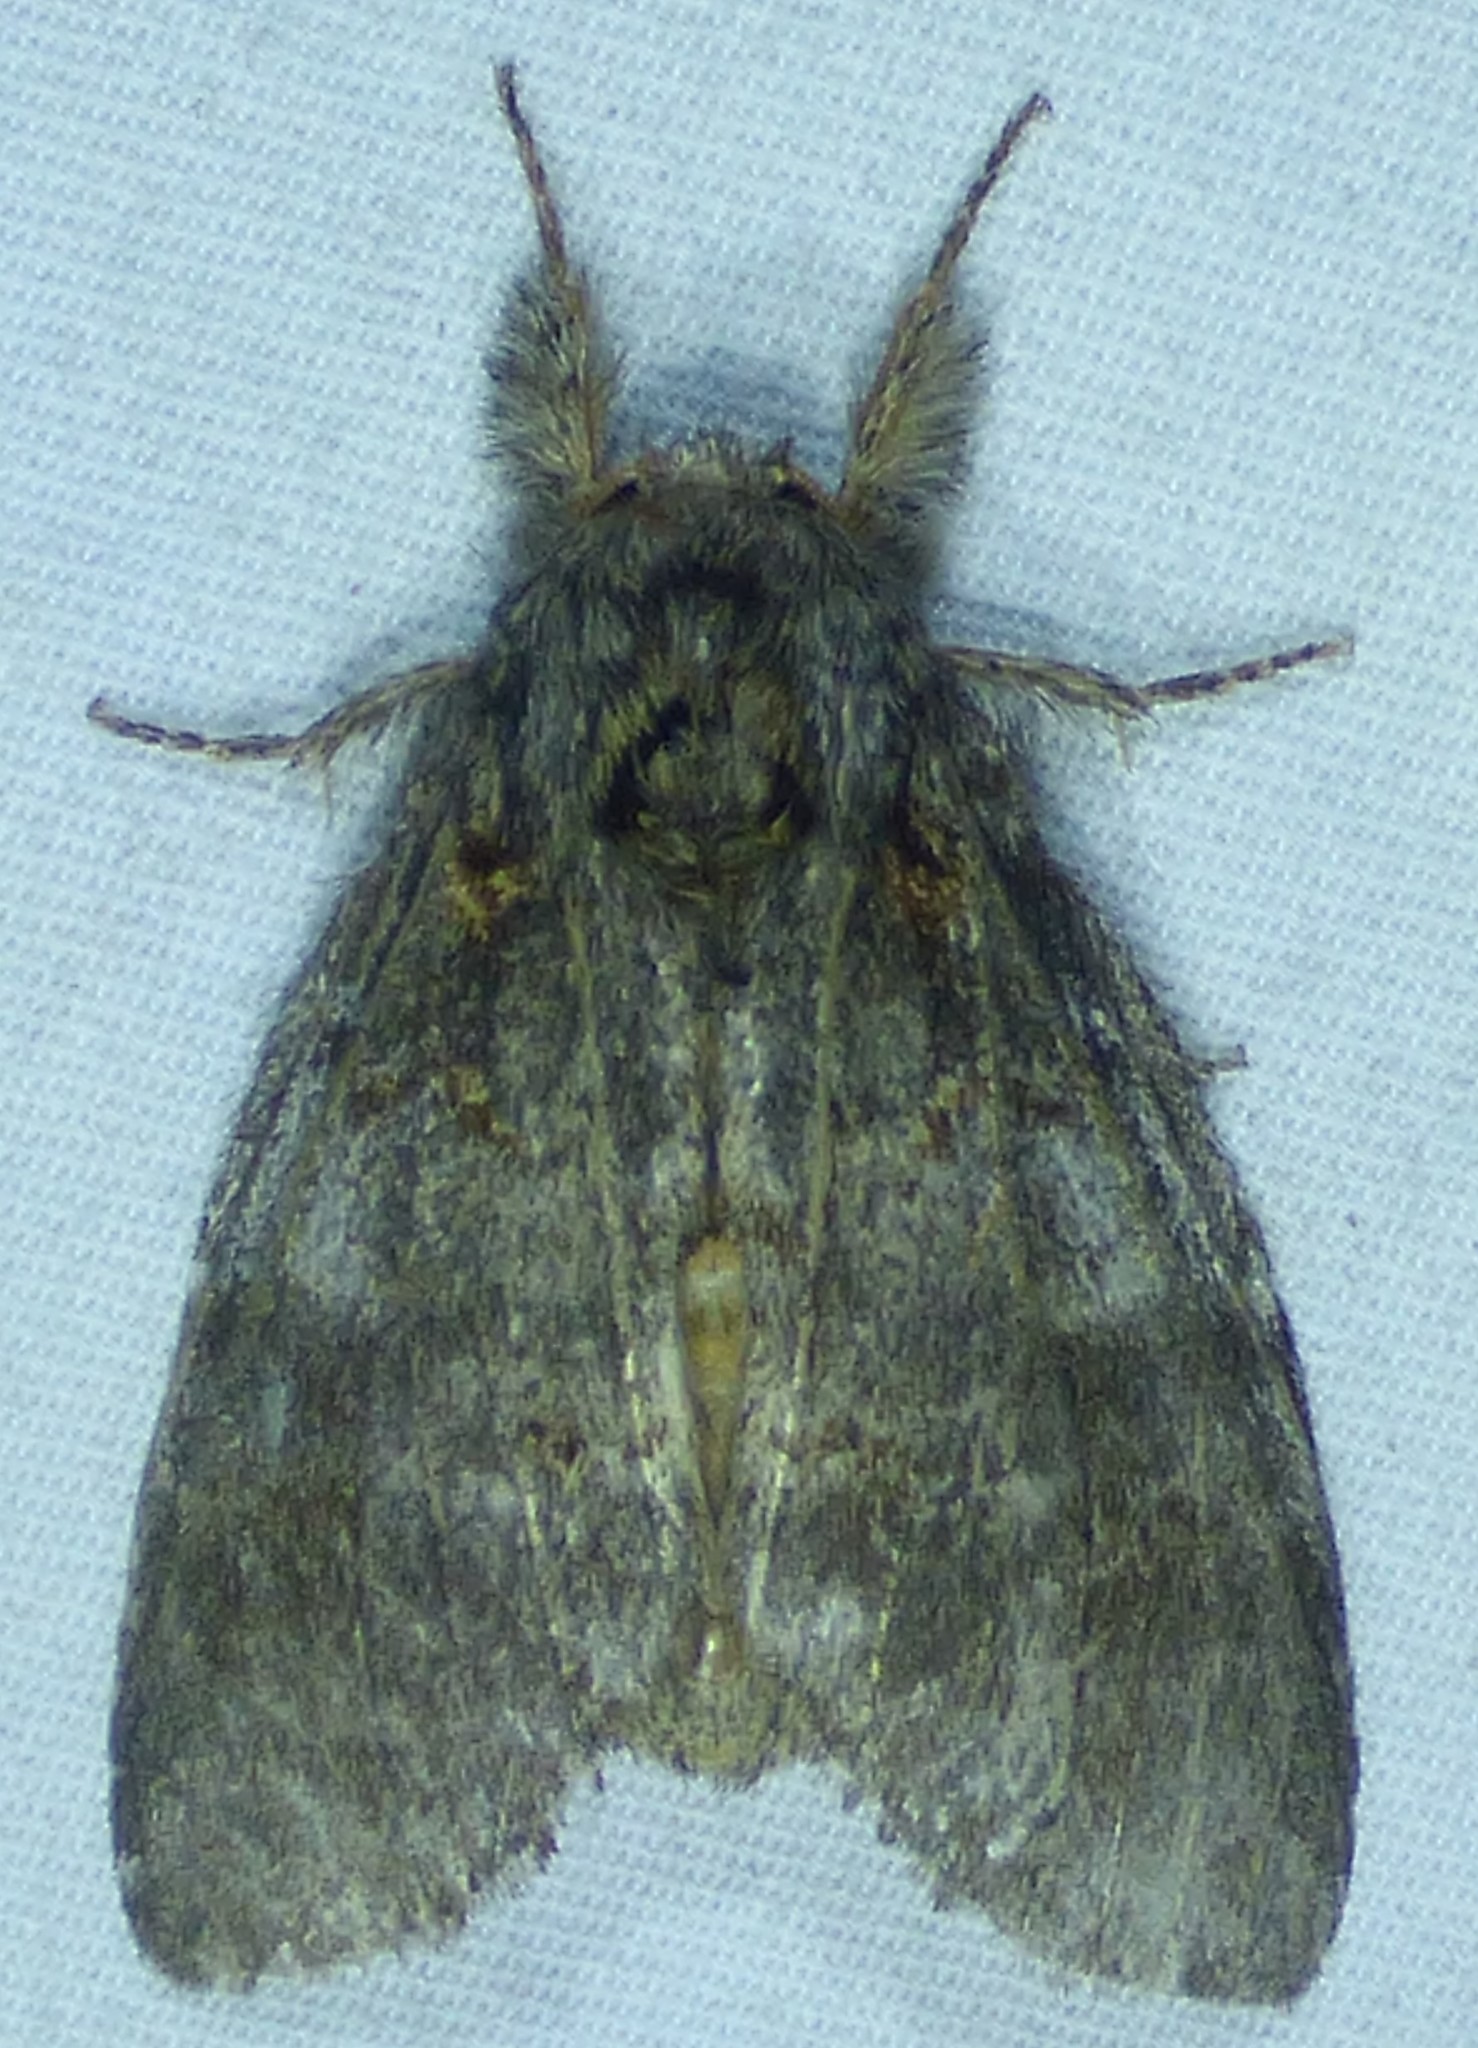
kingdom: Animalia
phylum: Arthropoda
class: Insecta
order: Lepidoptera
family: Notodontidae
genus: Peridea
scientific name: Peridea angulosa
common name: Angulose prominent
